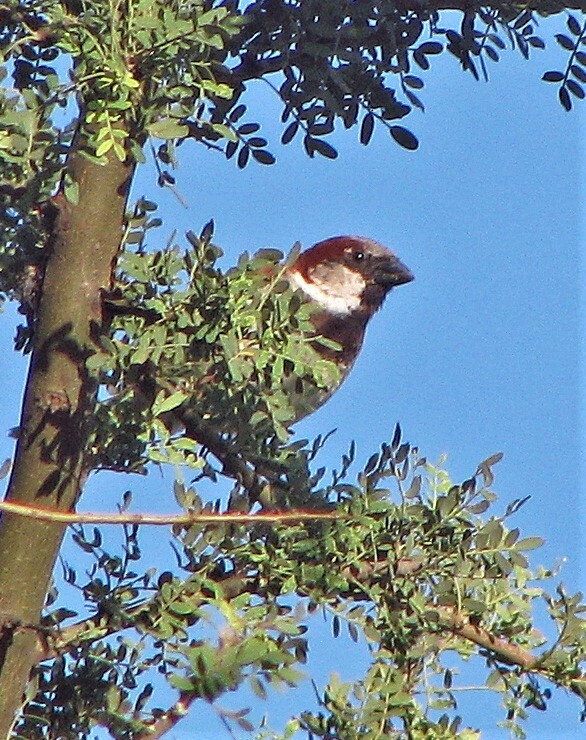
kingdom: Animalia
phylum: Chordata
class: Aves
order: Passeriformes
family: Passeridae
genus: Passer
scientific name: Passer domesticus
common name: House sparrow
